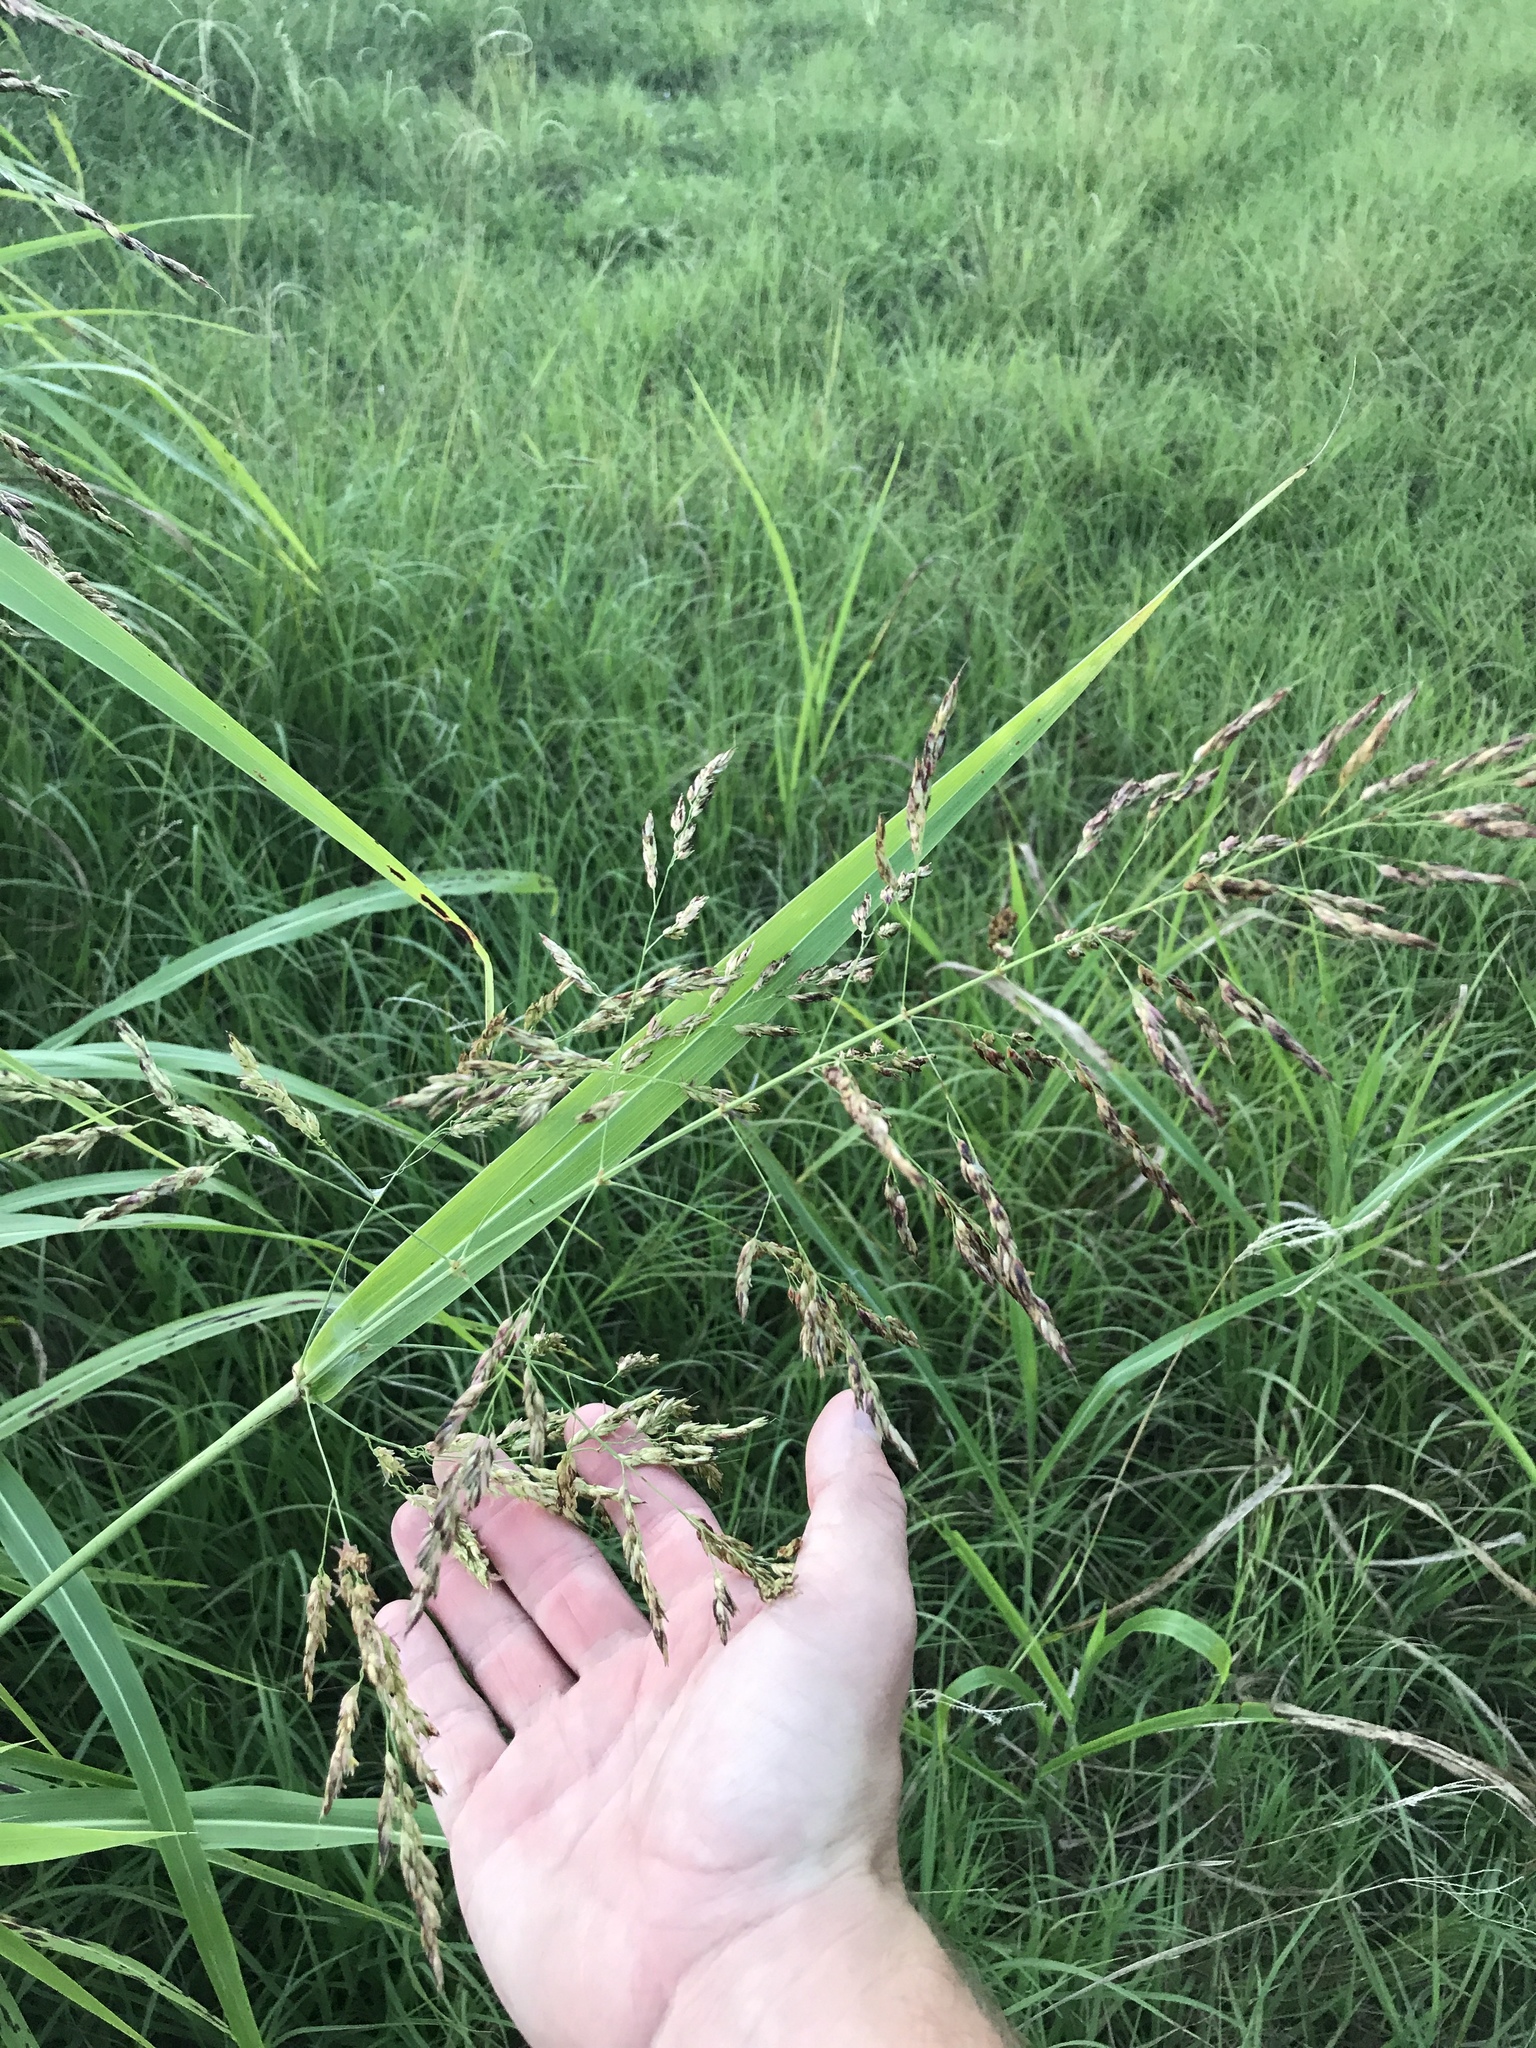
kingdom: Plantae
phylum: Tracheophyta
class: Liliopsida
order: Poales
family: Poaceae
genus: Sorghum
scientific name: Sorghum halepense
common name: Johnson-grass
